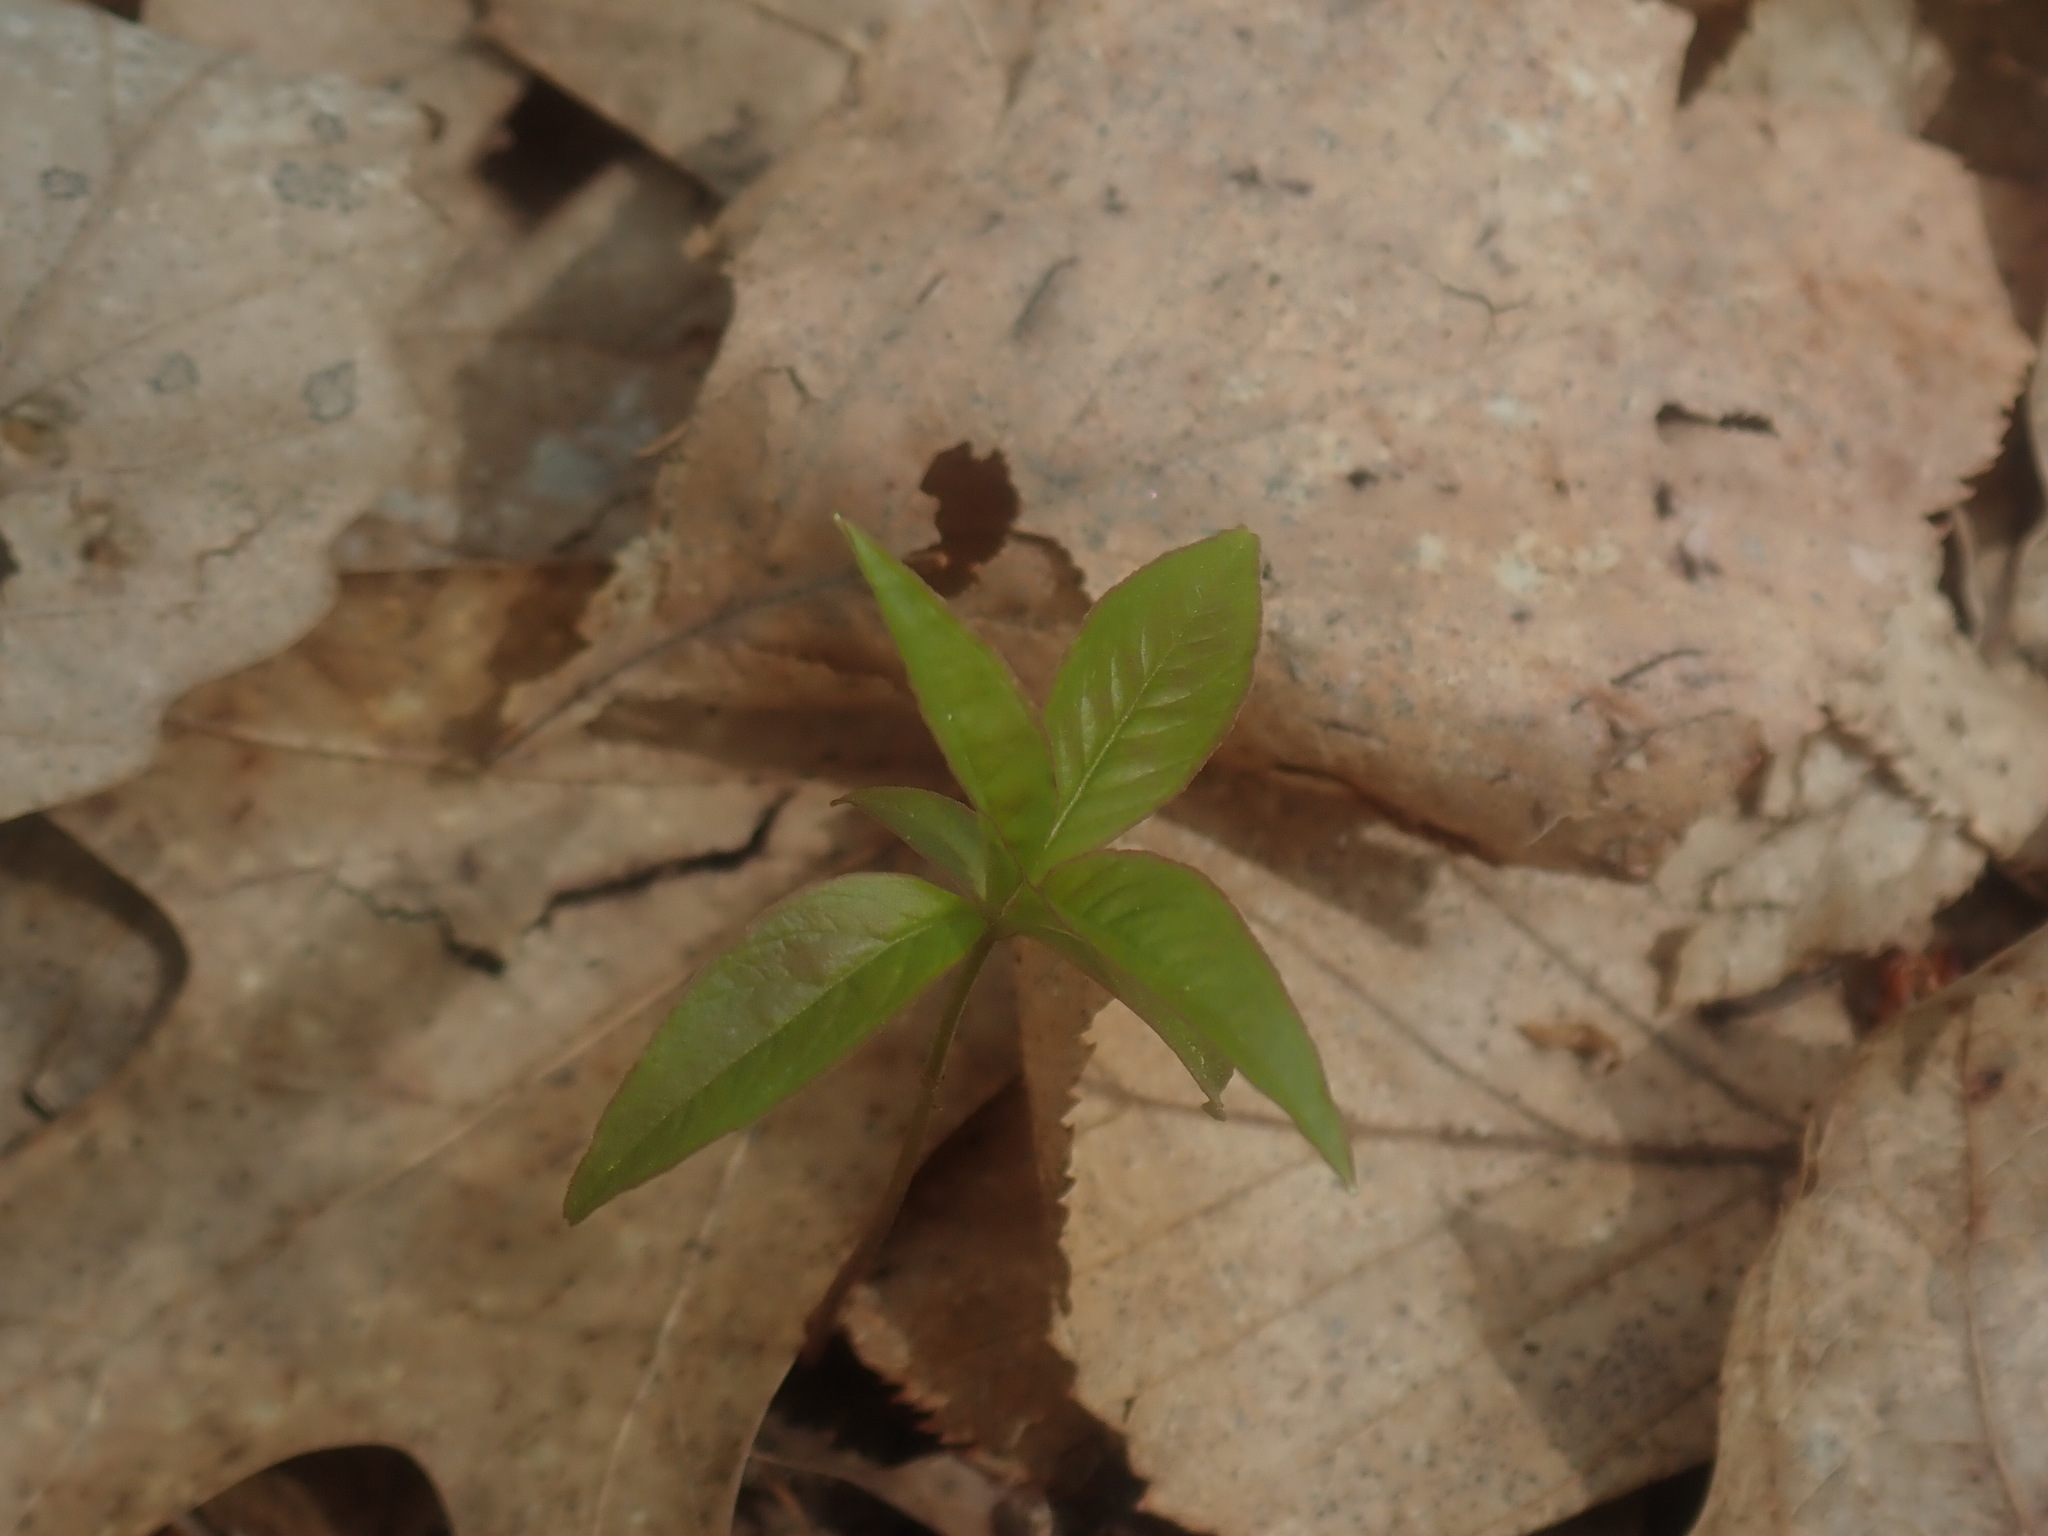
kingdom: Plantae
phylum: Tracheophyta
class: Magnoliopsida
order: Ericales
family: Primulaceae
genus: Lysimachia
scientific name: Lysimachia borealis
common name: American starflower
